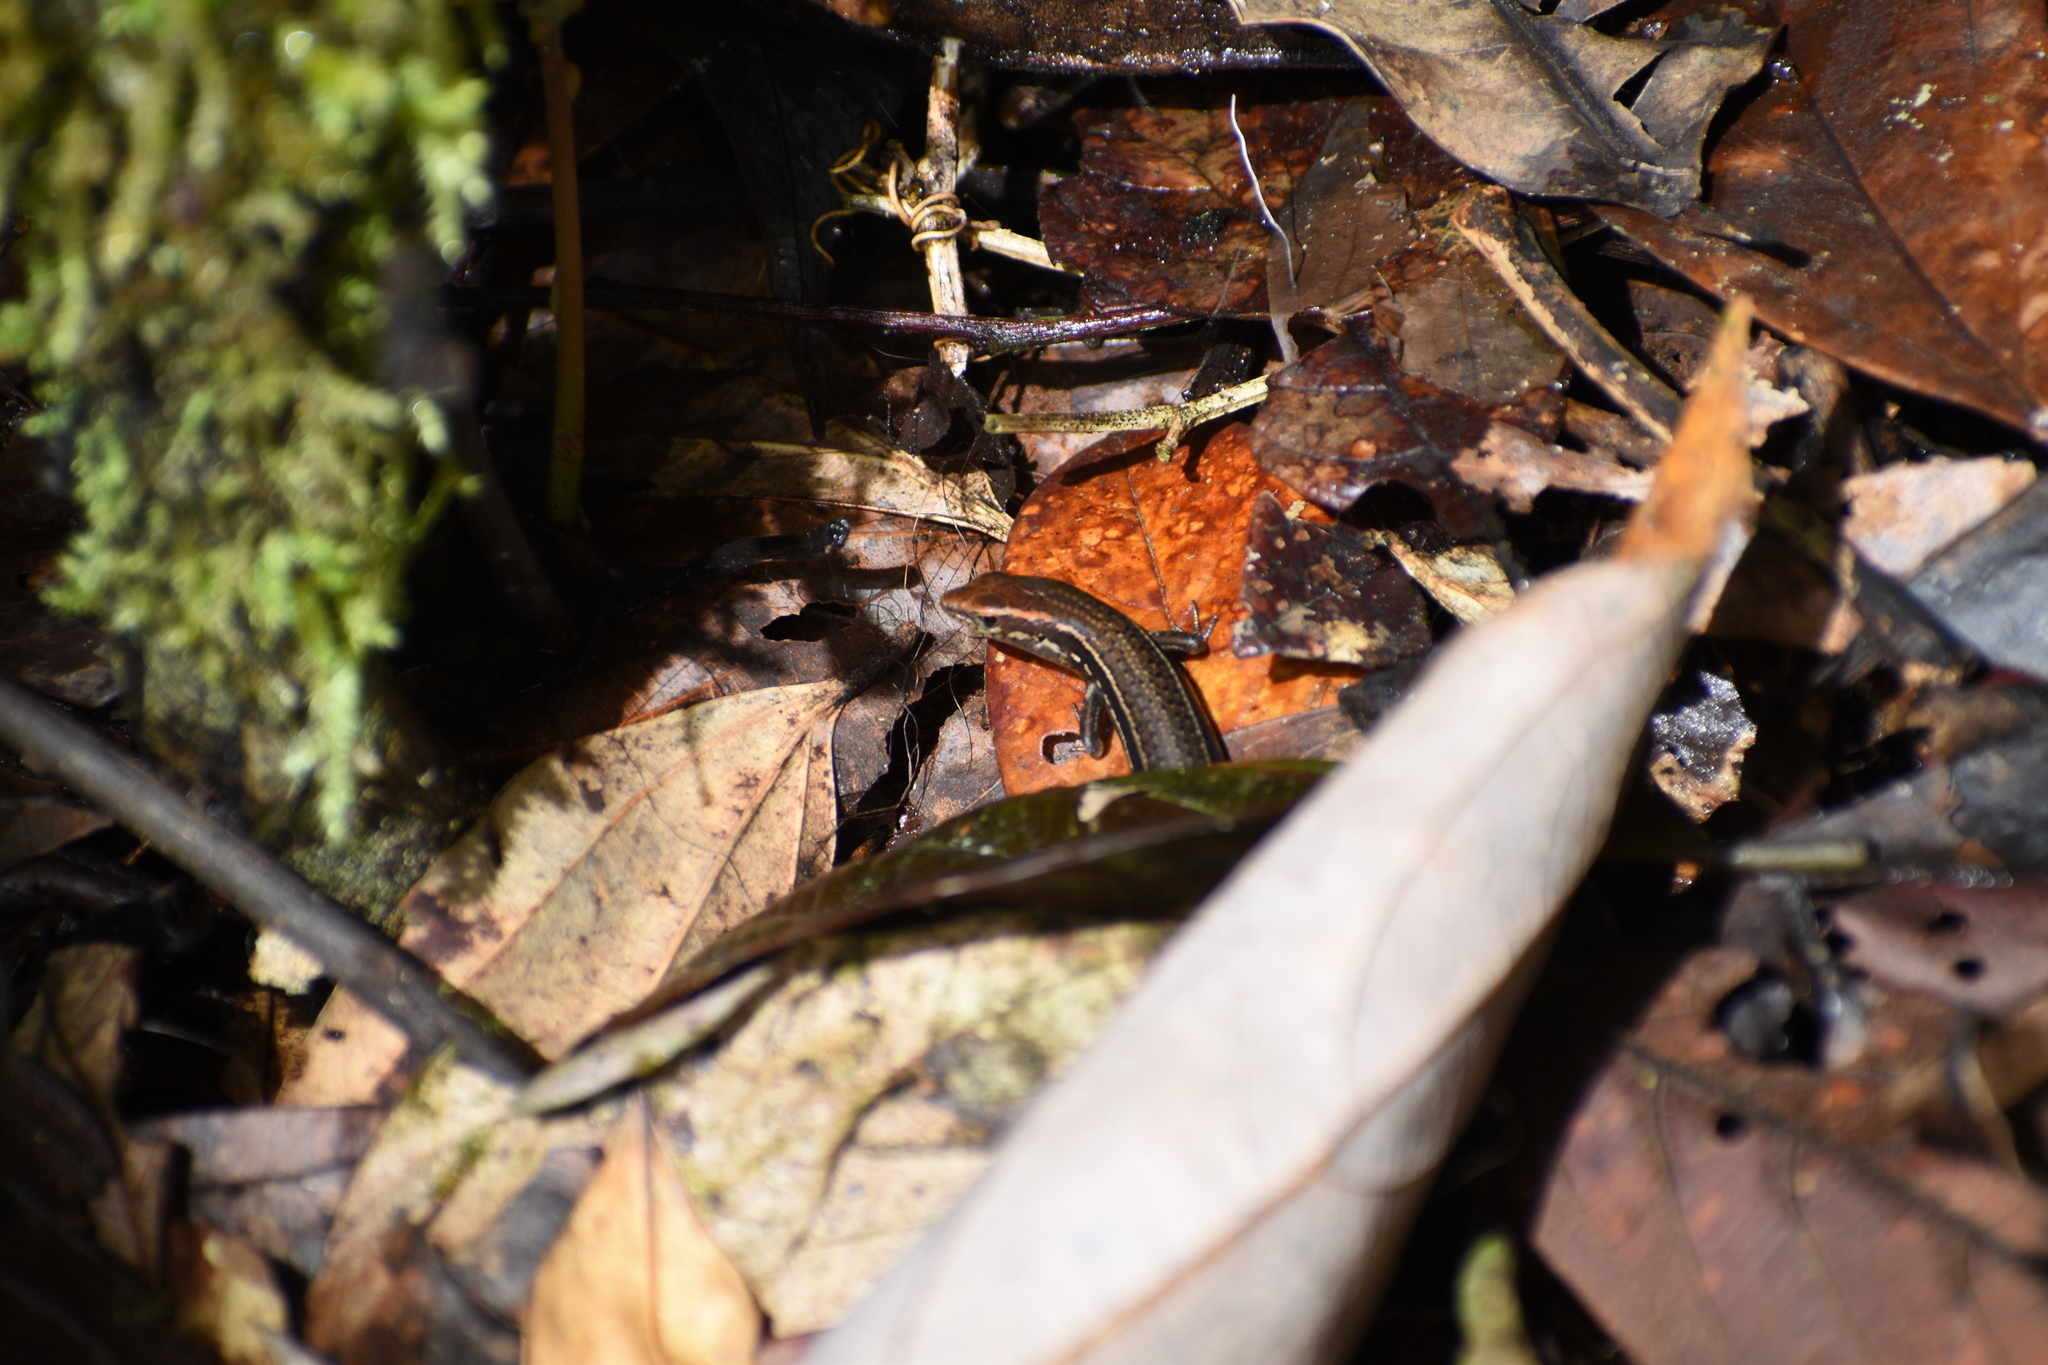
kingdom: Animalia
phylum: Chordata
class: Squamata
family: Scincidae
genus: Carlia
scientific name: Carlia rubrigularis
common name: Northern red-throated skink
